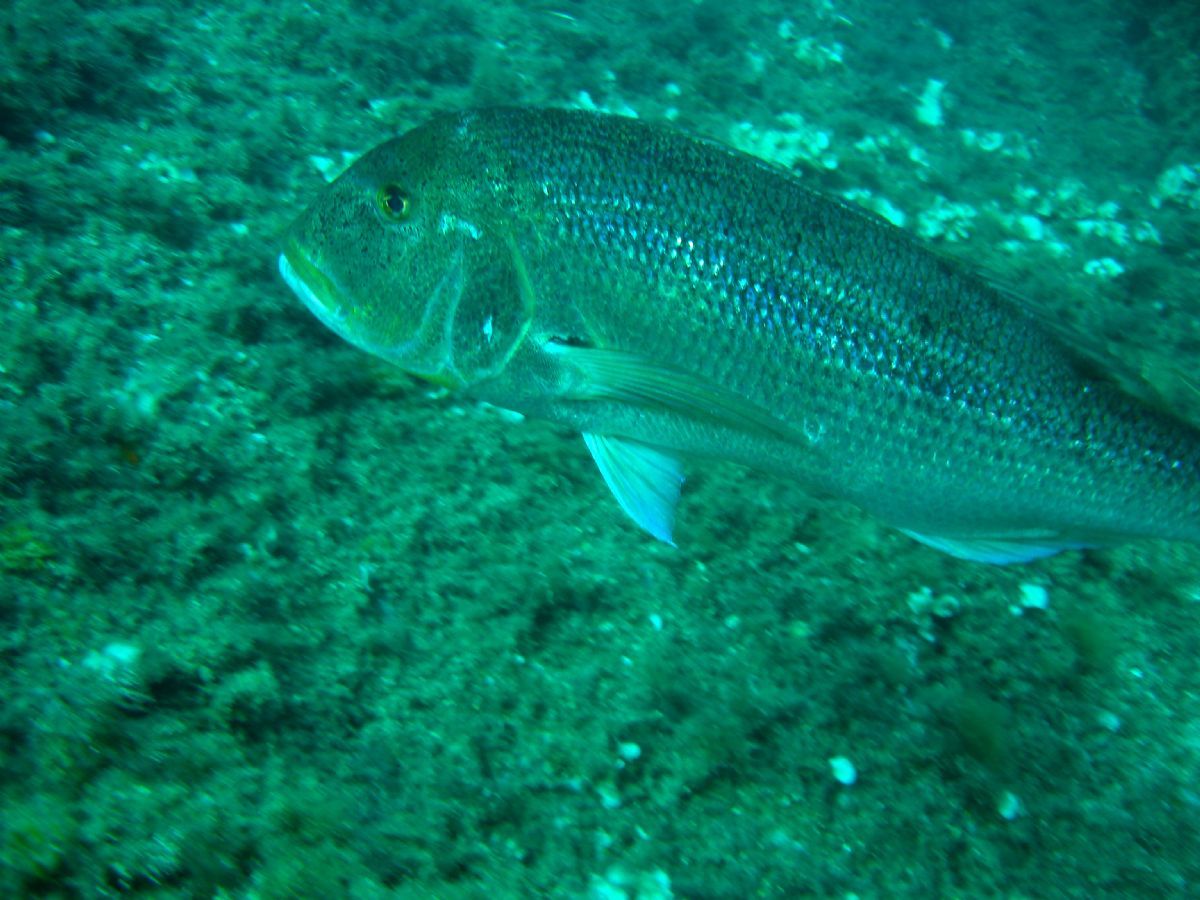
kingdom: Animalia
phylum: Chordata
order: Perciformes
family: Sparidae
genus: Dentex
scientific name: Dentex dentex
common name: Dentex
